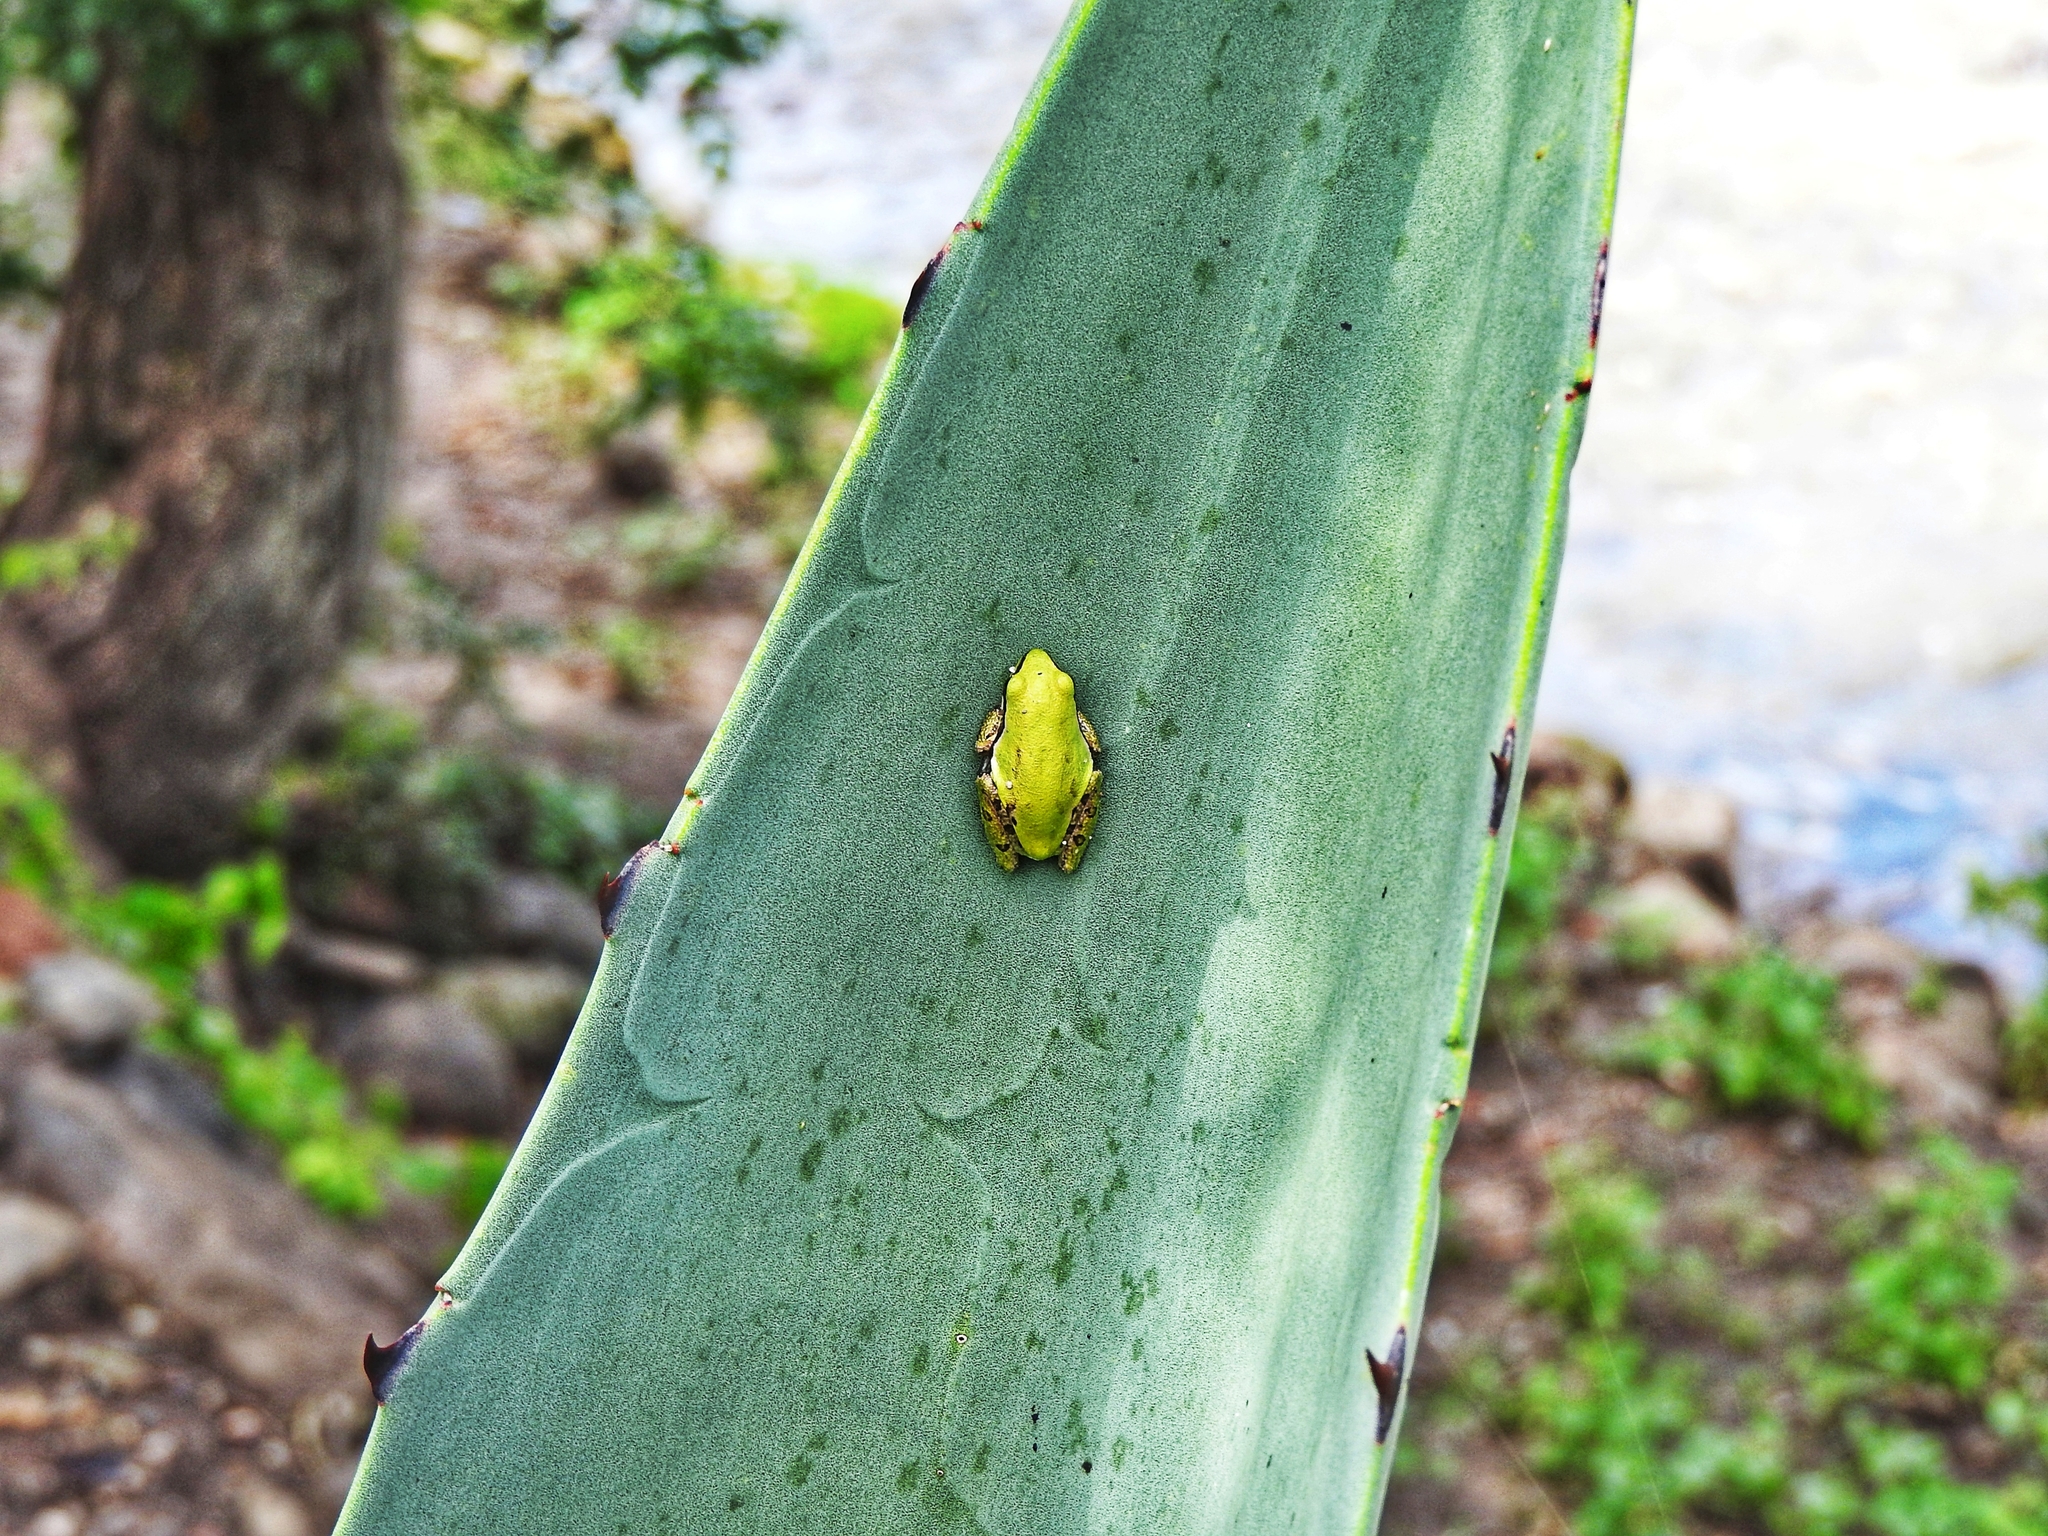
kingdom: Animalia
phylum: Chordata
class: Amphibia
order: Anura
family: Hylidae
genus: Dryophytes
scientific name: Dryophytes eximius
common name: Mountain treefrog
